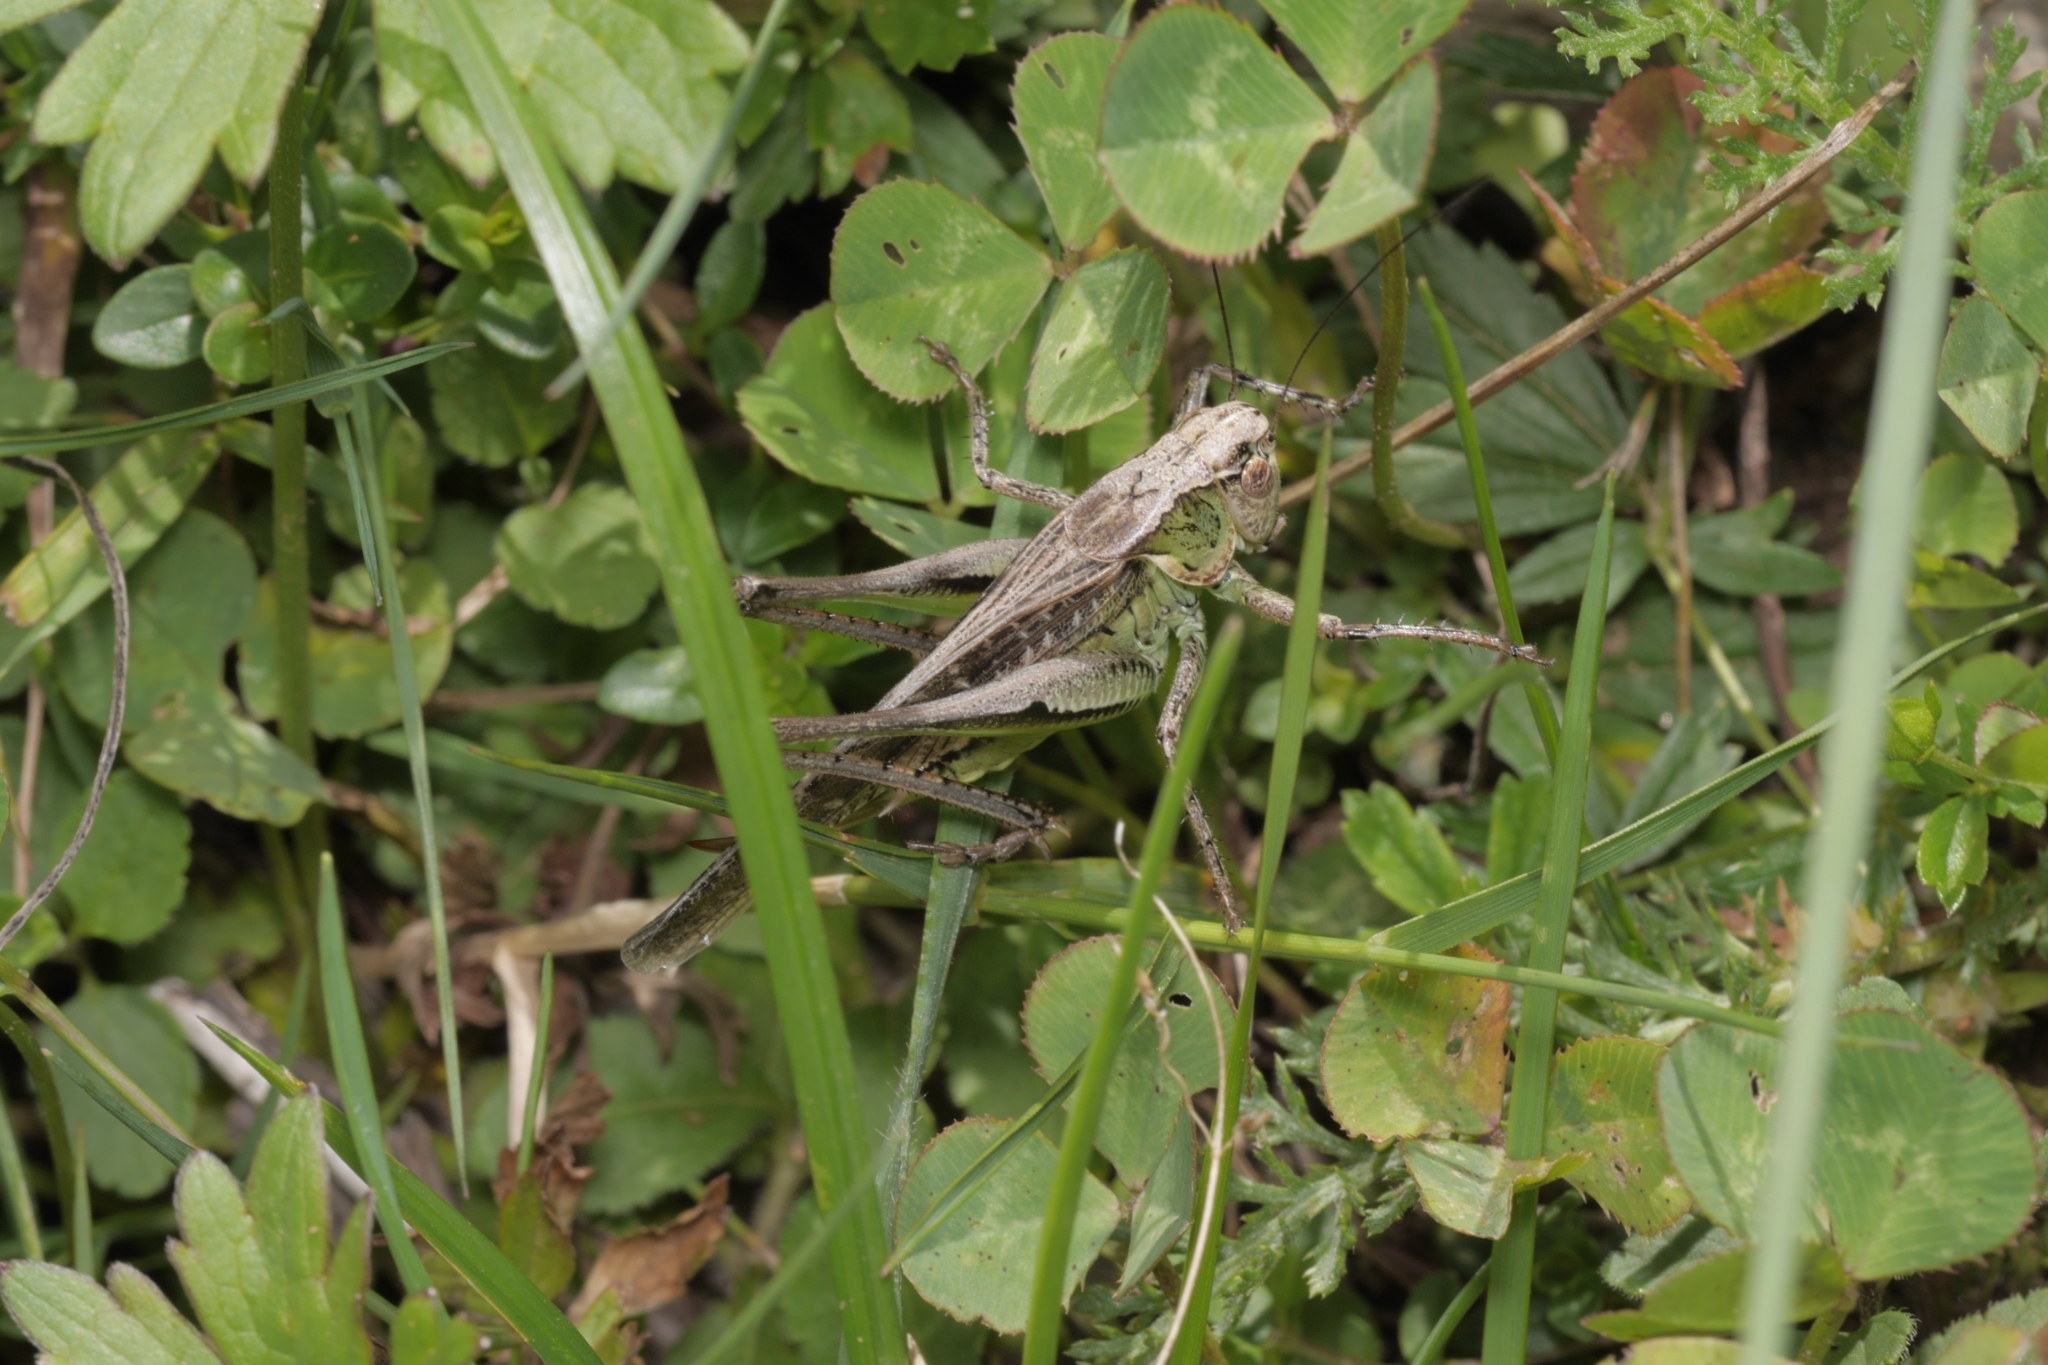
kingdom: Animalia
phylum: Arthropoda
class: Insecta
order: Orthoptera
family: Tettigoniidae
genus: Platycleis
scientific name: Platycleis grisea
